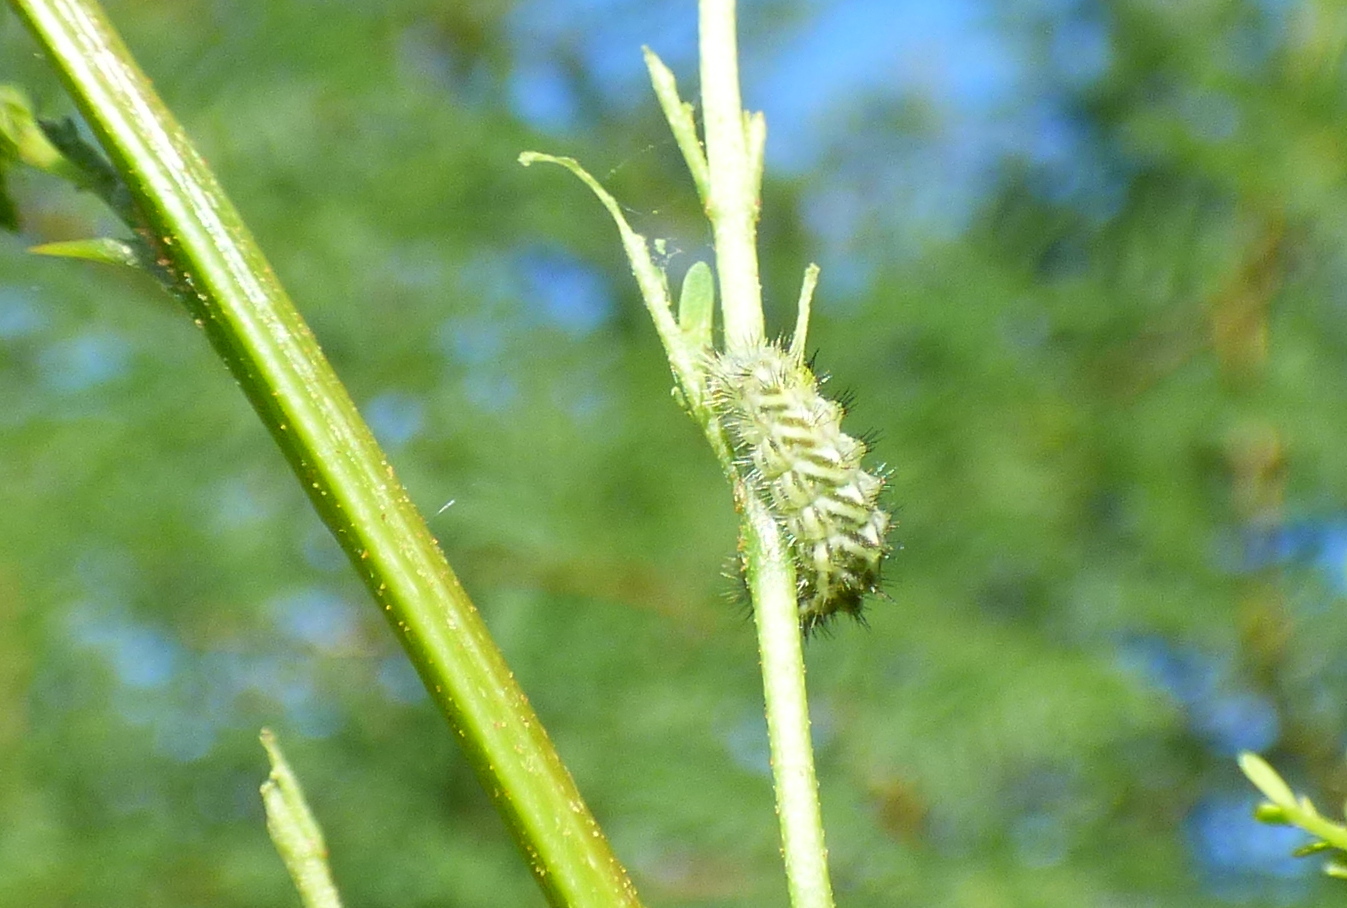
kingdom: Animalia
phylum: Arthropoda
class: Insecta
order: Lepidoptera
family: Lycaenidae
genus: Ministrymon
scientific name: Ministrymon
